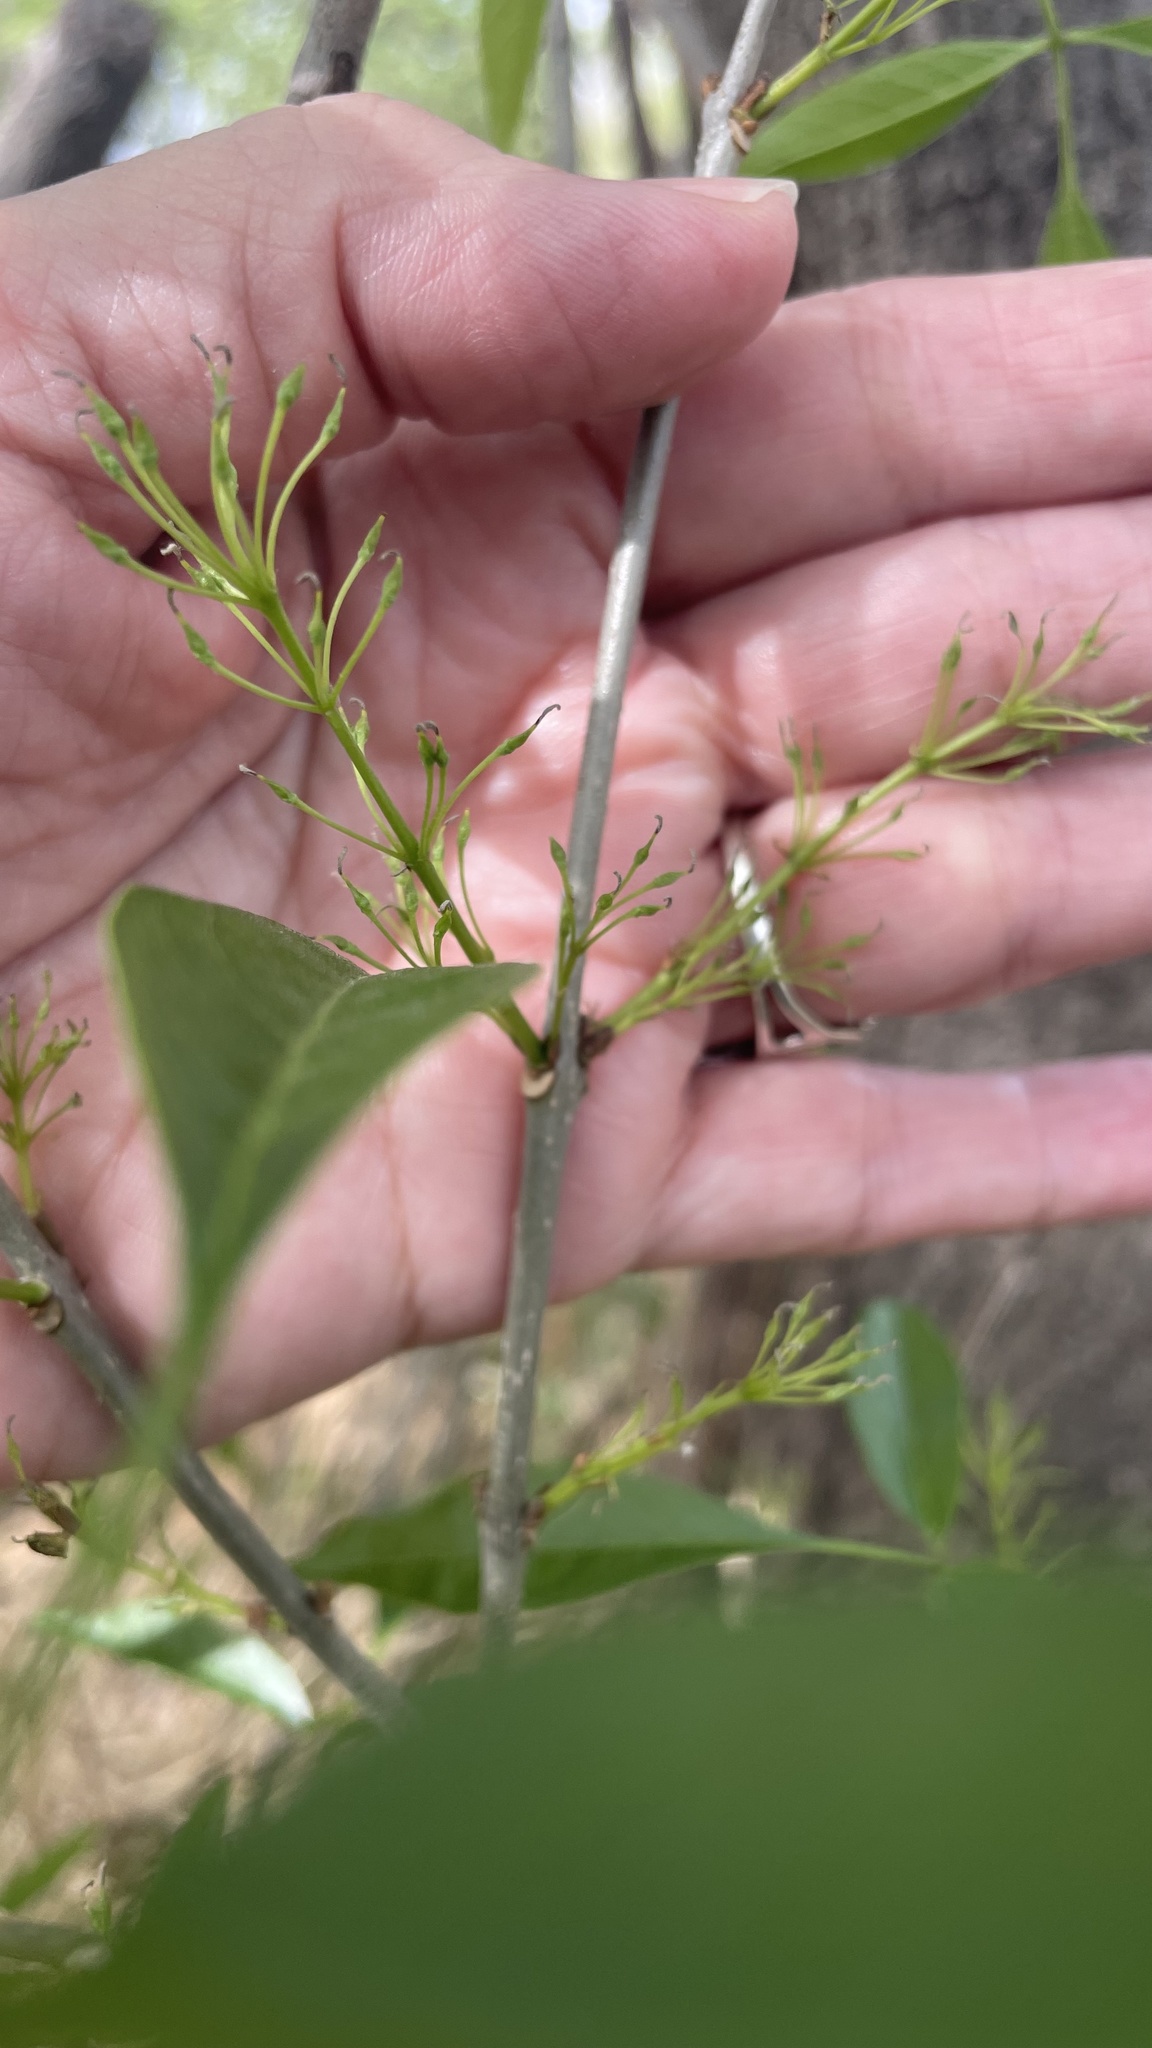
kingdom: Plantae
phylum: Tracheophyta
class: Magnoliopsida
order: Lamiales
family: Oleaceae
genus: Fraxinus
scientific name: Fraxinus berlandieriana
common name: Berlandier ash
